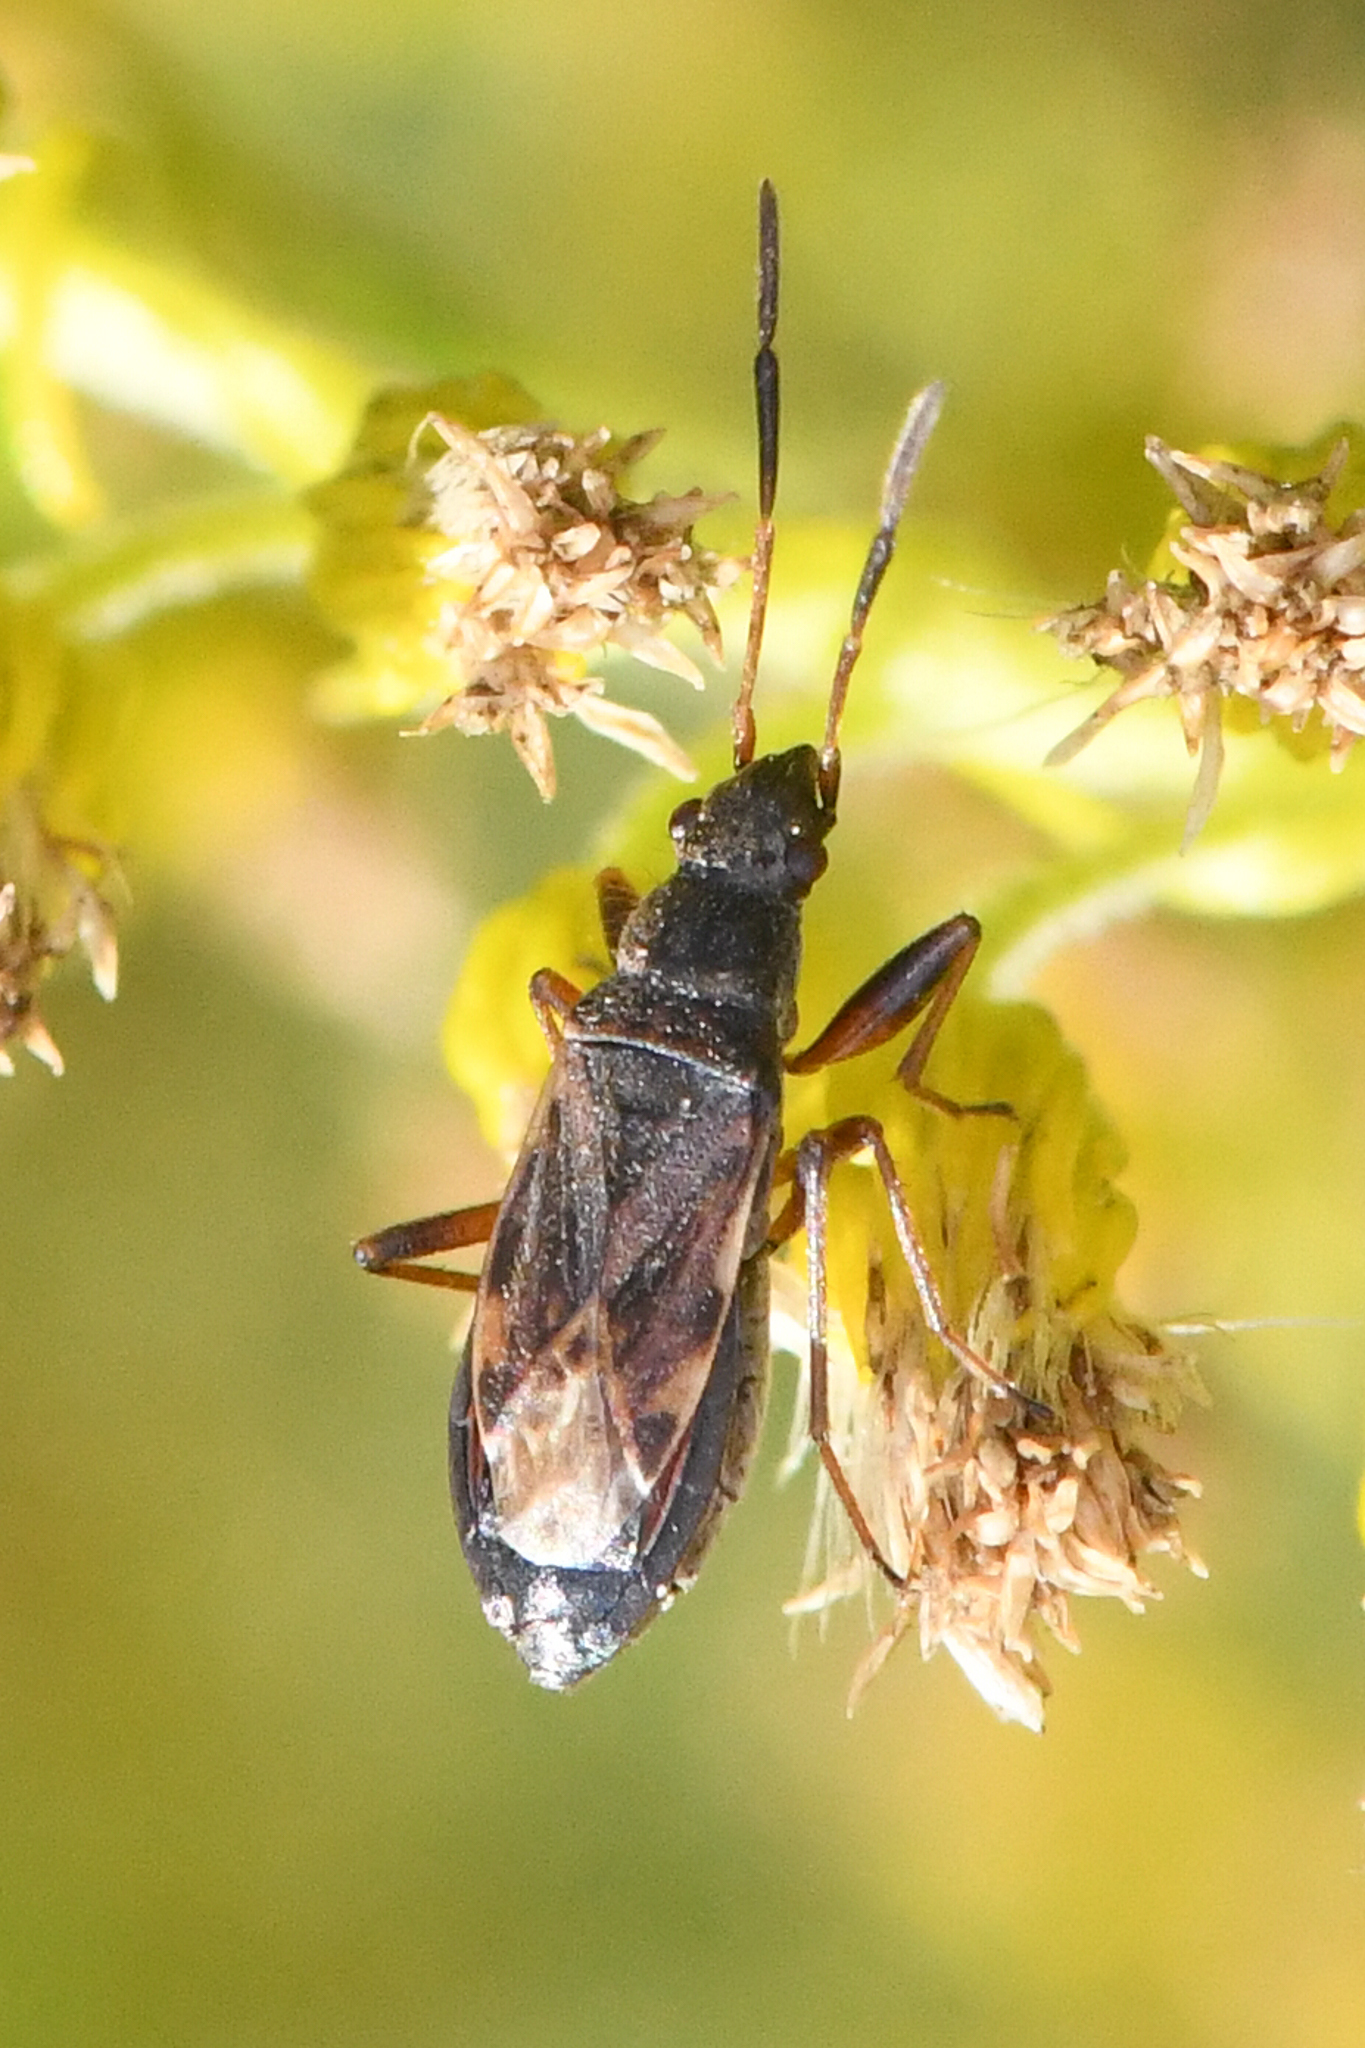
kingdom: Animalia
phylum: Arthropoda
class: Insecta
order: Hemiptera
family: Rhyparochromidae
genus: Ligyrocoris
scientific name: Ligyrocoris sylvestris
